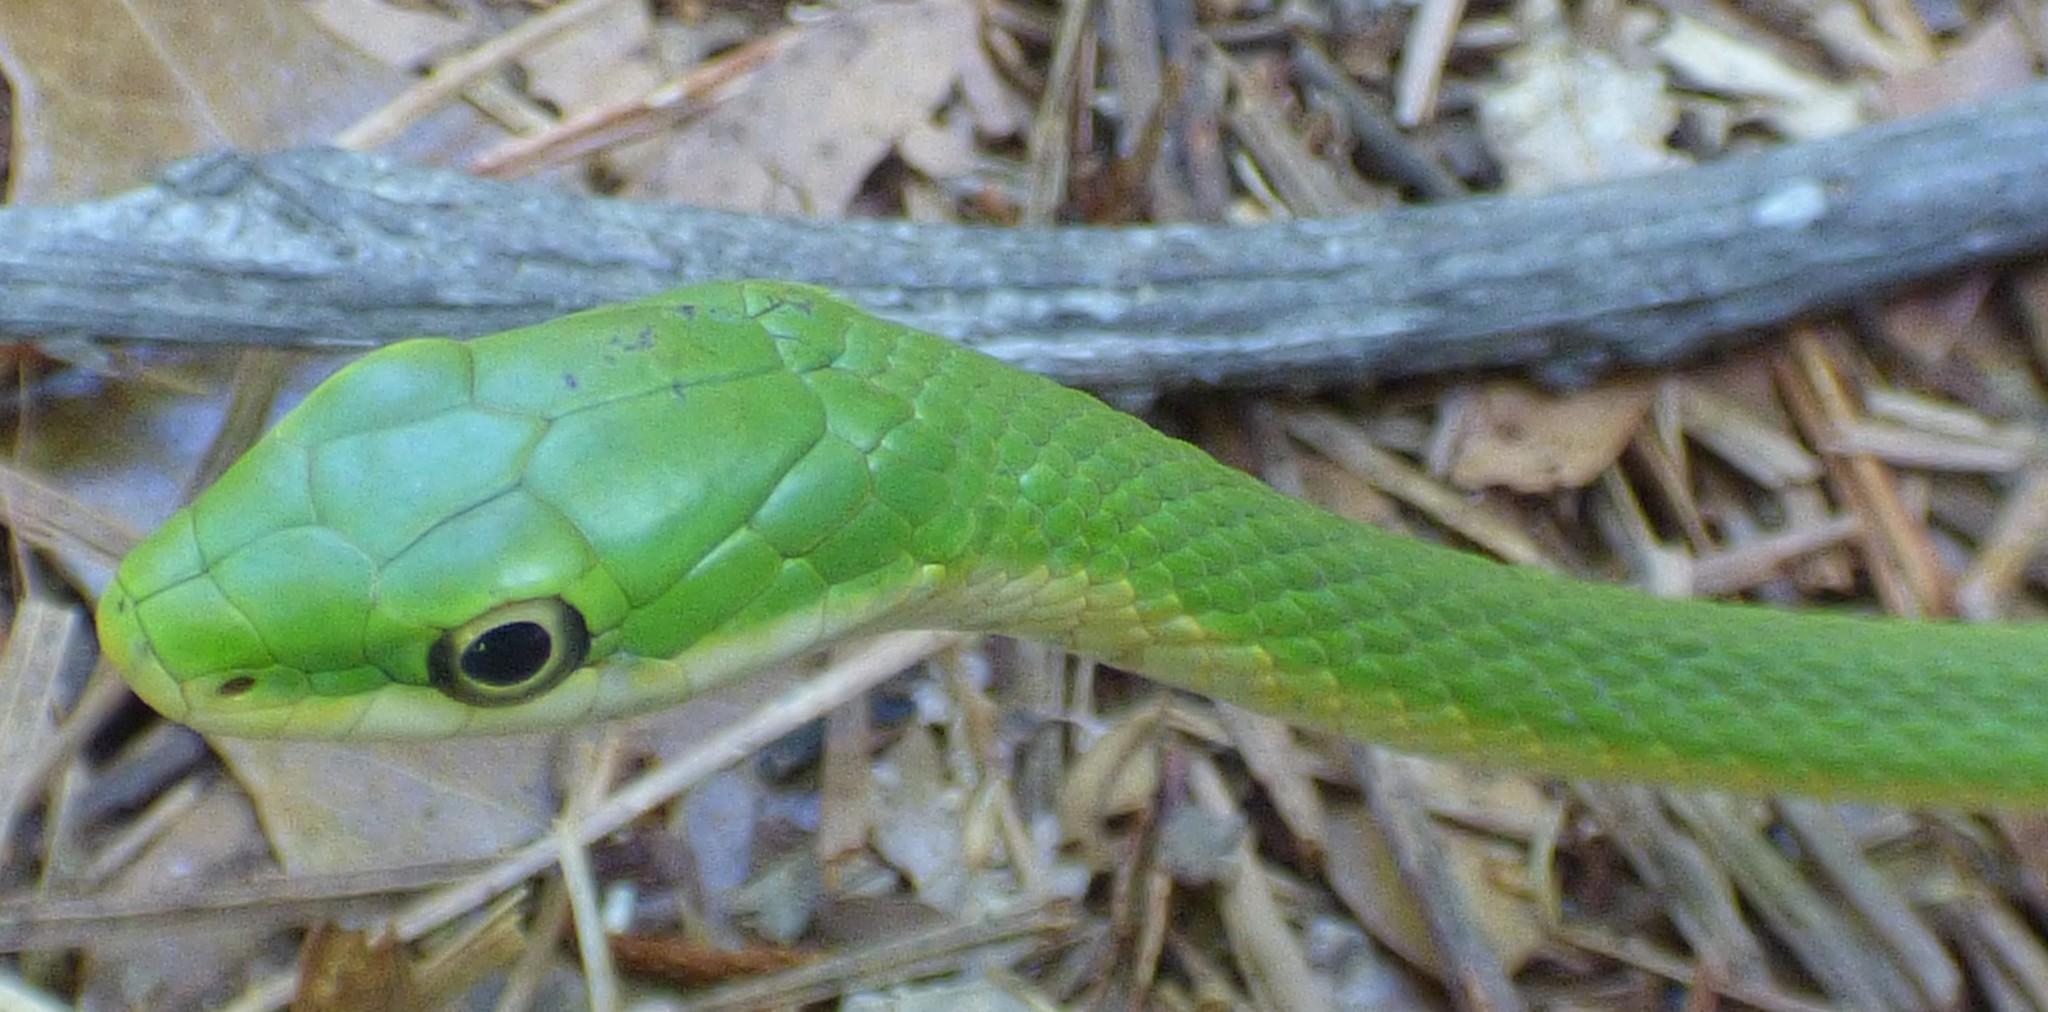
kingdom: Animalia
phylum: Chordata
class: Squamata
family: Colubridae
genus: Opheodrys
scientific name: Opheodrys aestivus
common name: Rough greensnake
